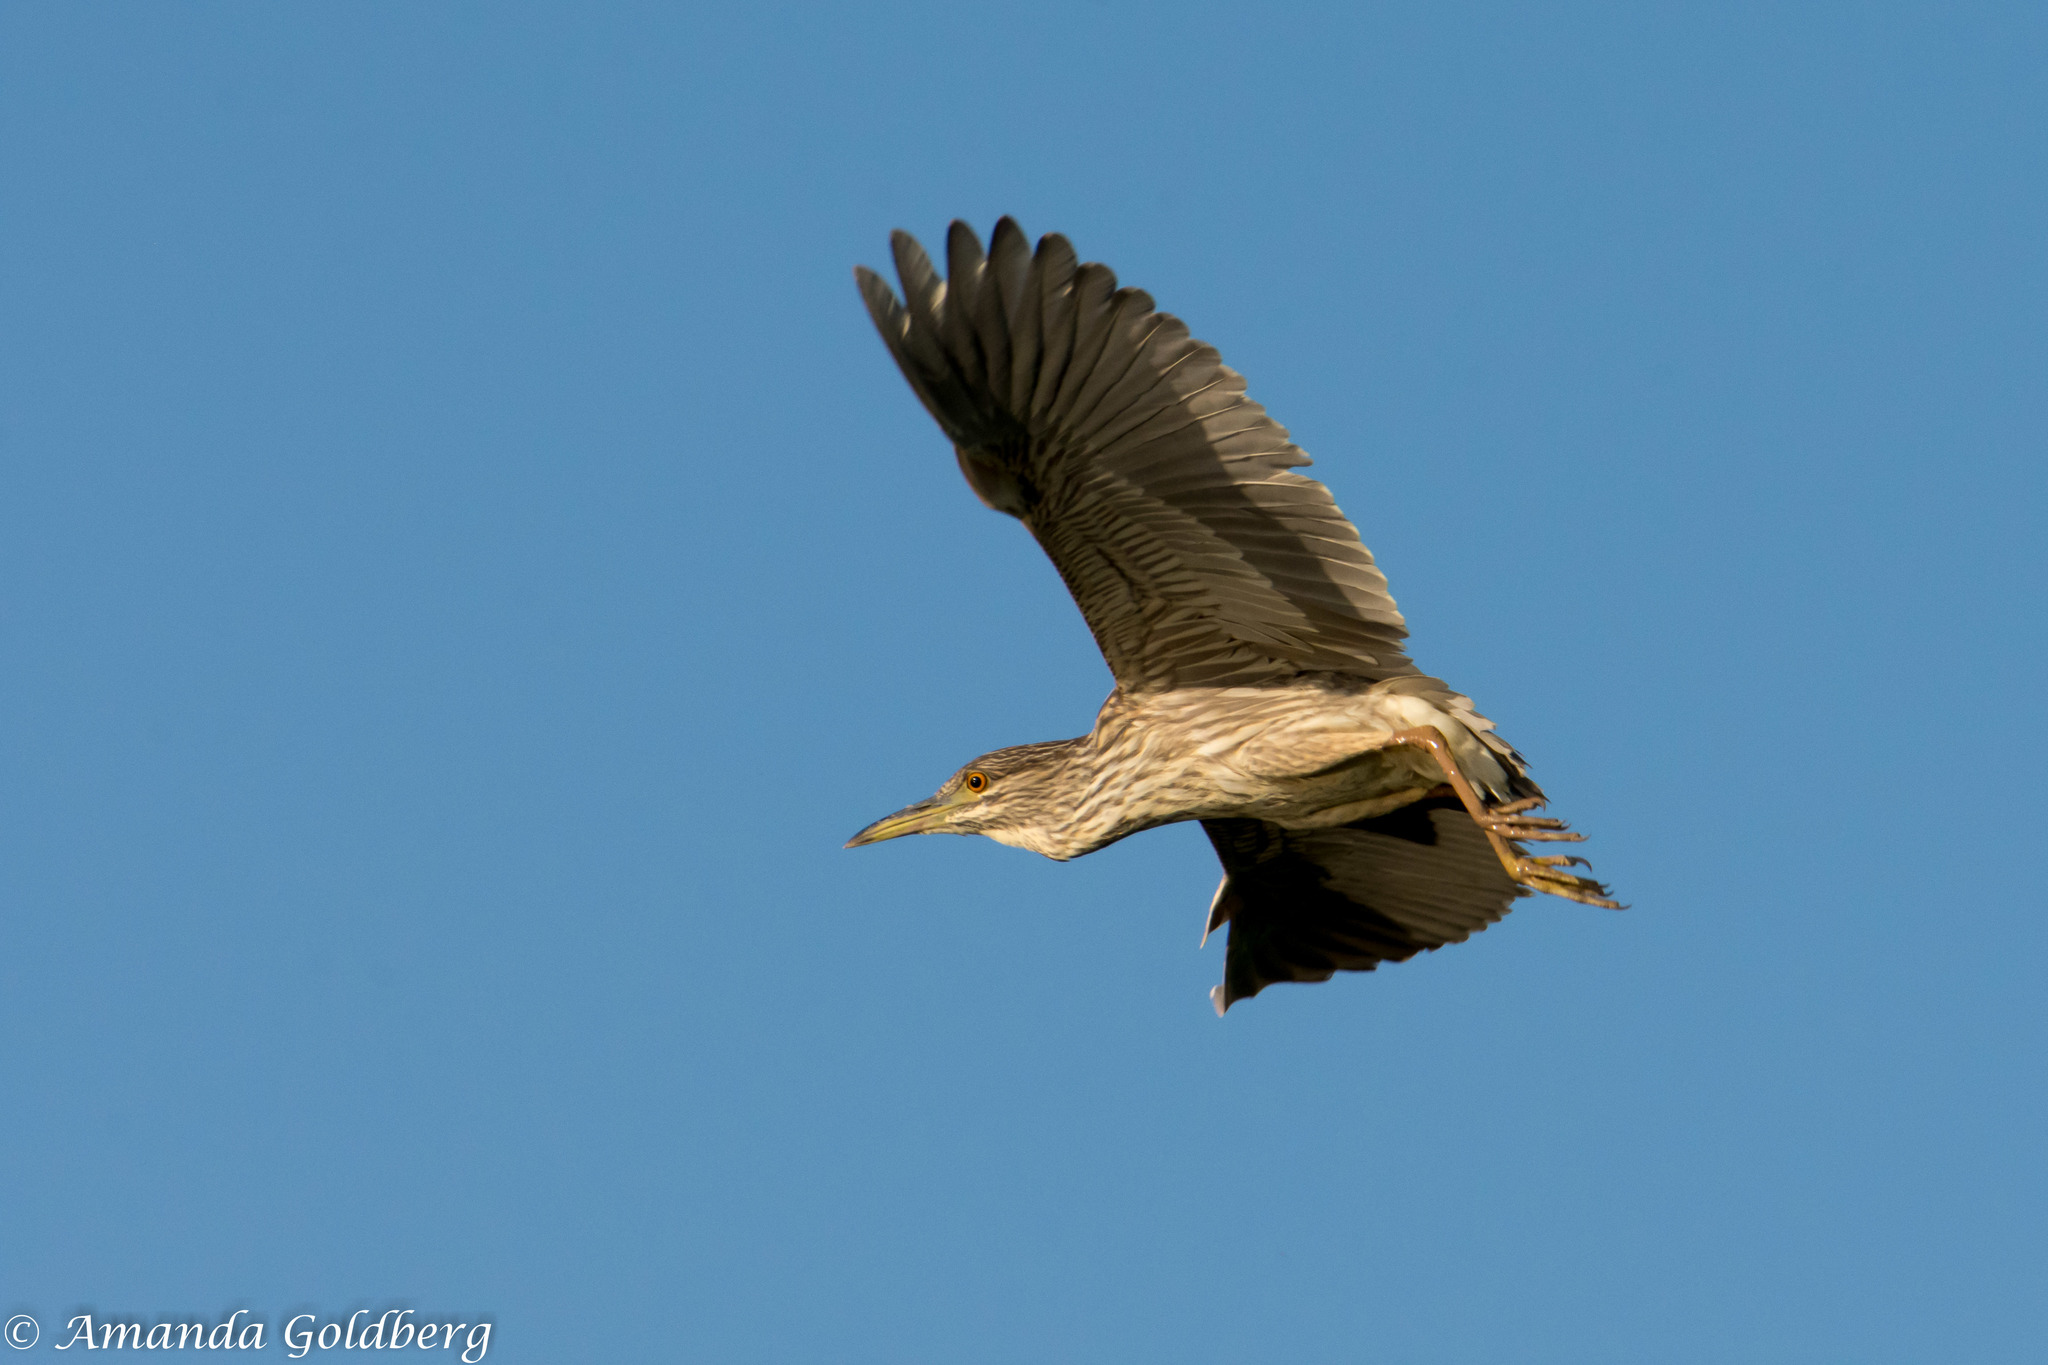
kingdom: Animalia
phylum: Chordata
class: Aves
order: Pelecaniformes
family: Ardeidae
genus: Nycticorax
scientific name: Nycticorax nycticorax
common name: Black-crowned night heron
